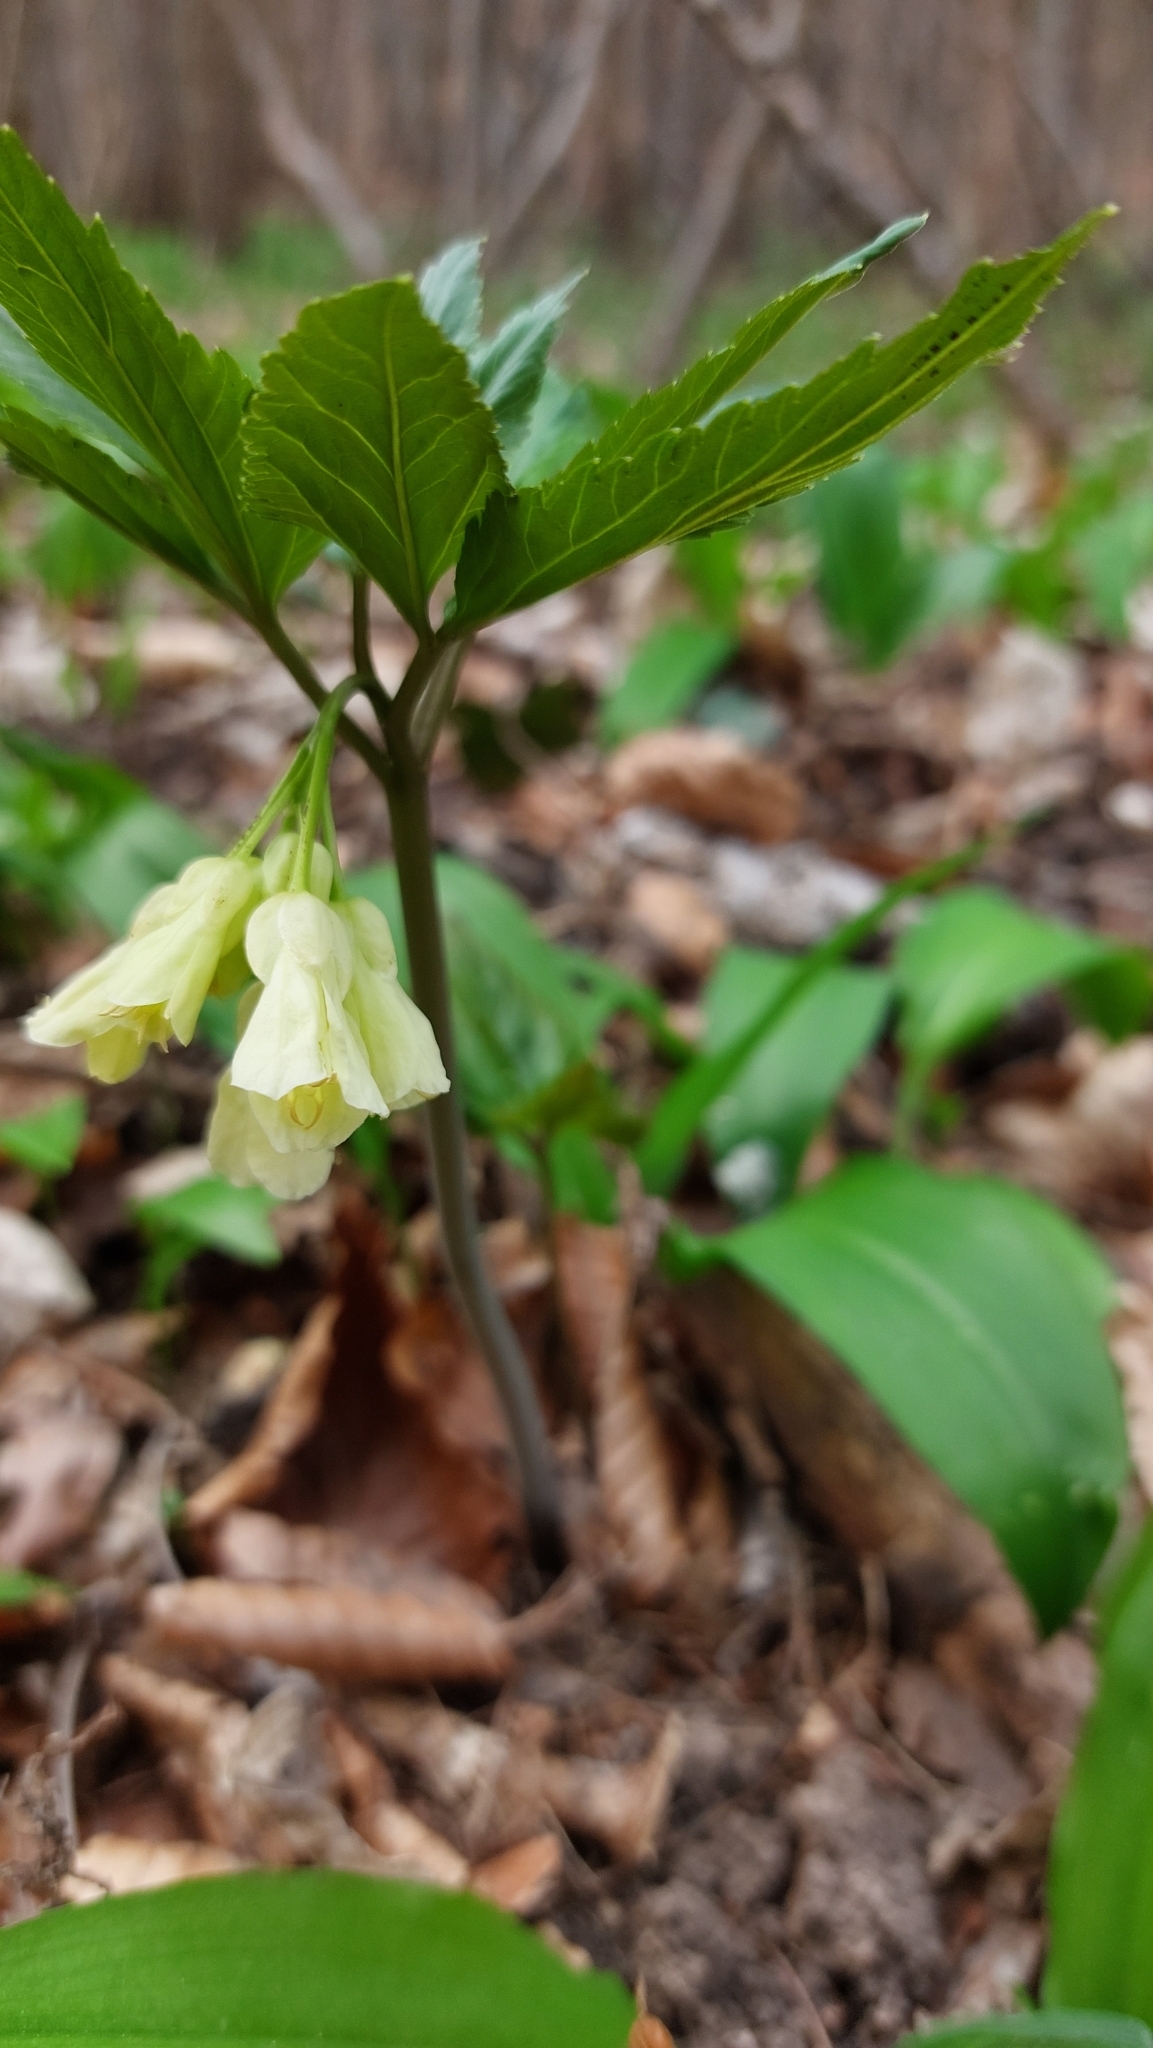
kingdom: Plantae
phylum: Tracheophyta
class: Magnoliopsida
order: Brassicales
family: Brassicaceae
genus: Cardamine
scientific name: Cardamine enneaphyllos
